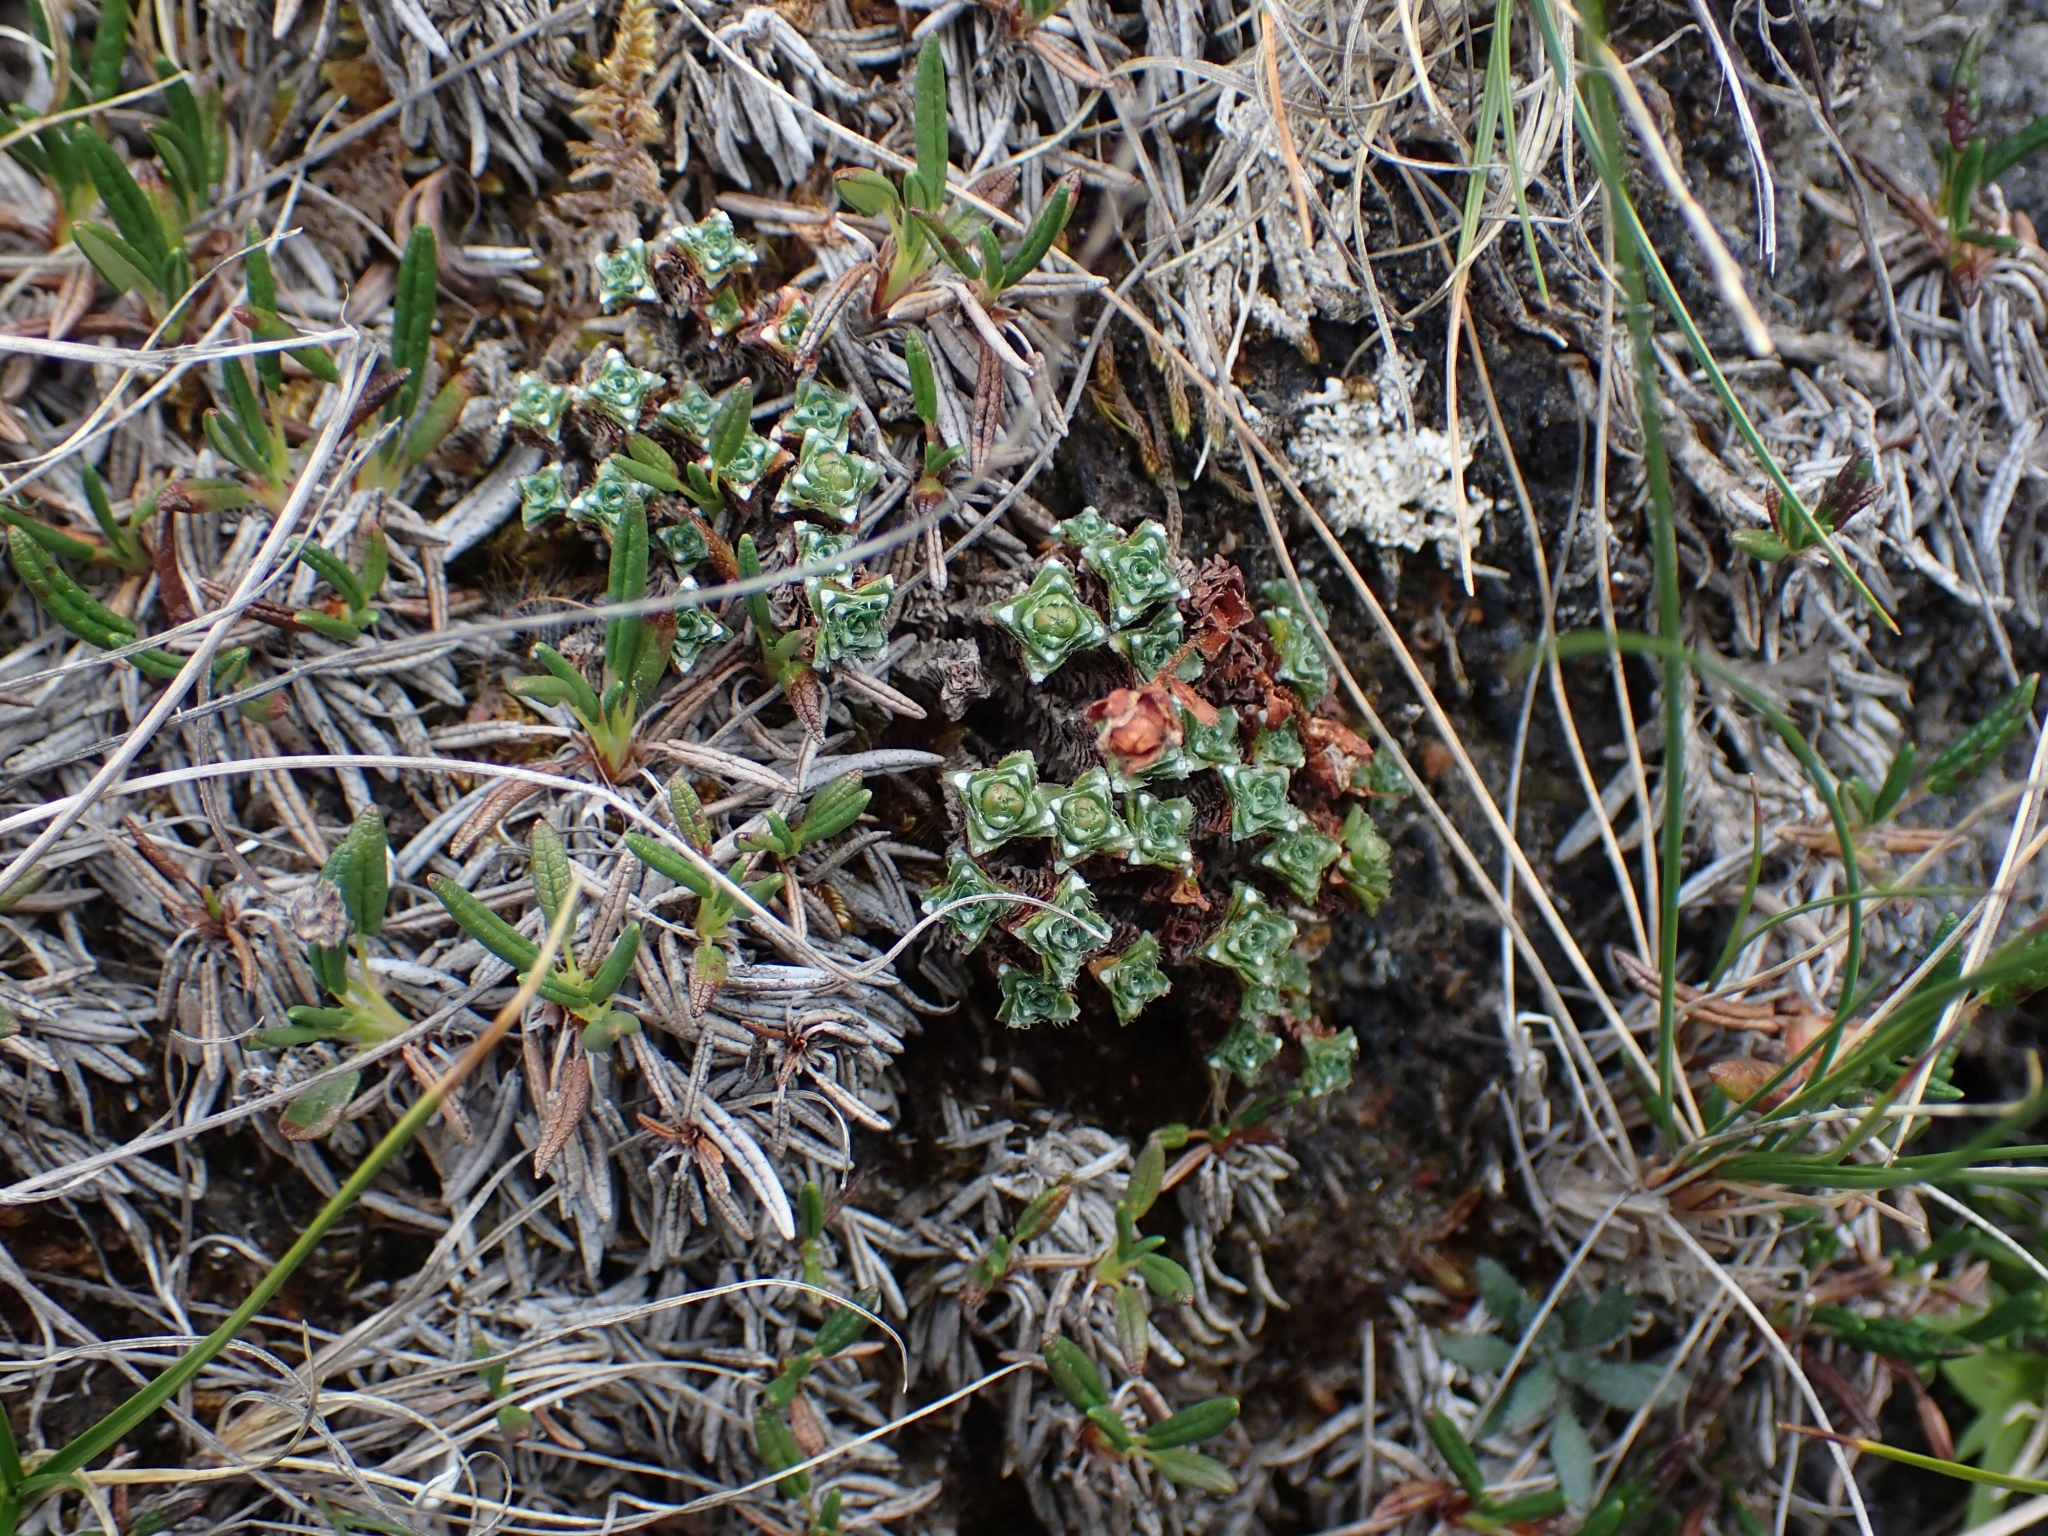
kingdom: Plantae
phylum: Tracheophyta
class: Magnoliopsida
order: Saxifragales
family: Saxifragaceae
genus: Saxifraga
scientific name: Saxifraga oppositifolia
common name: Purple saxifrage
